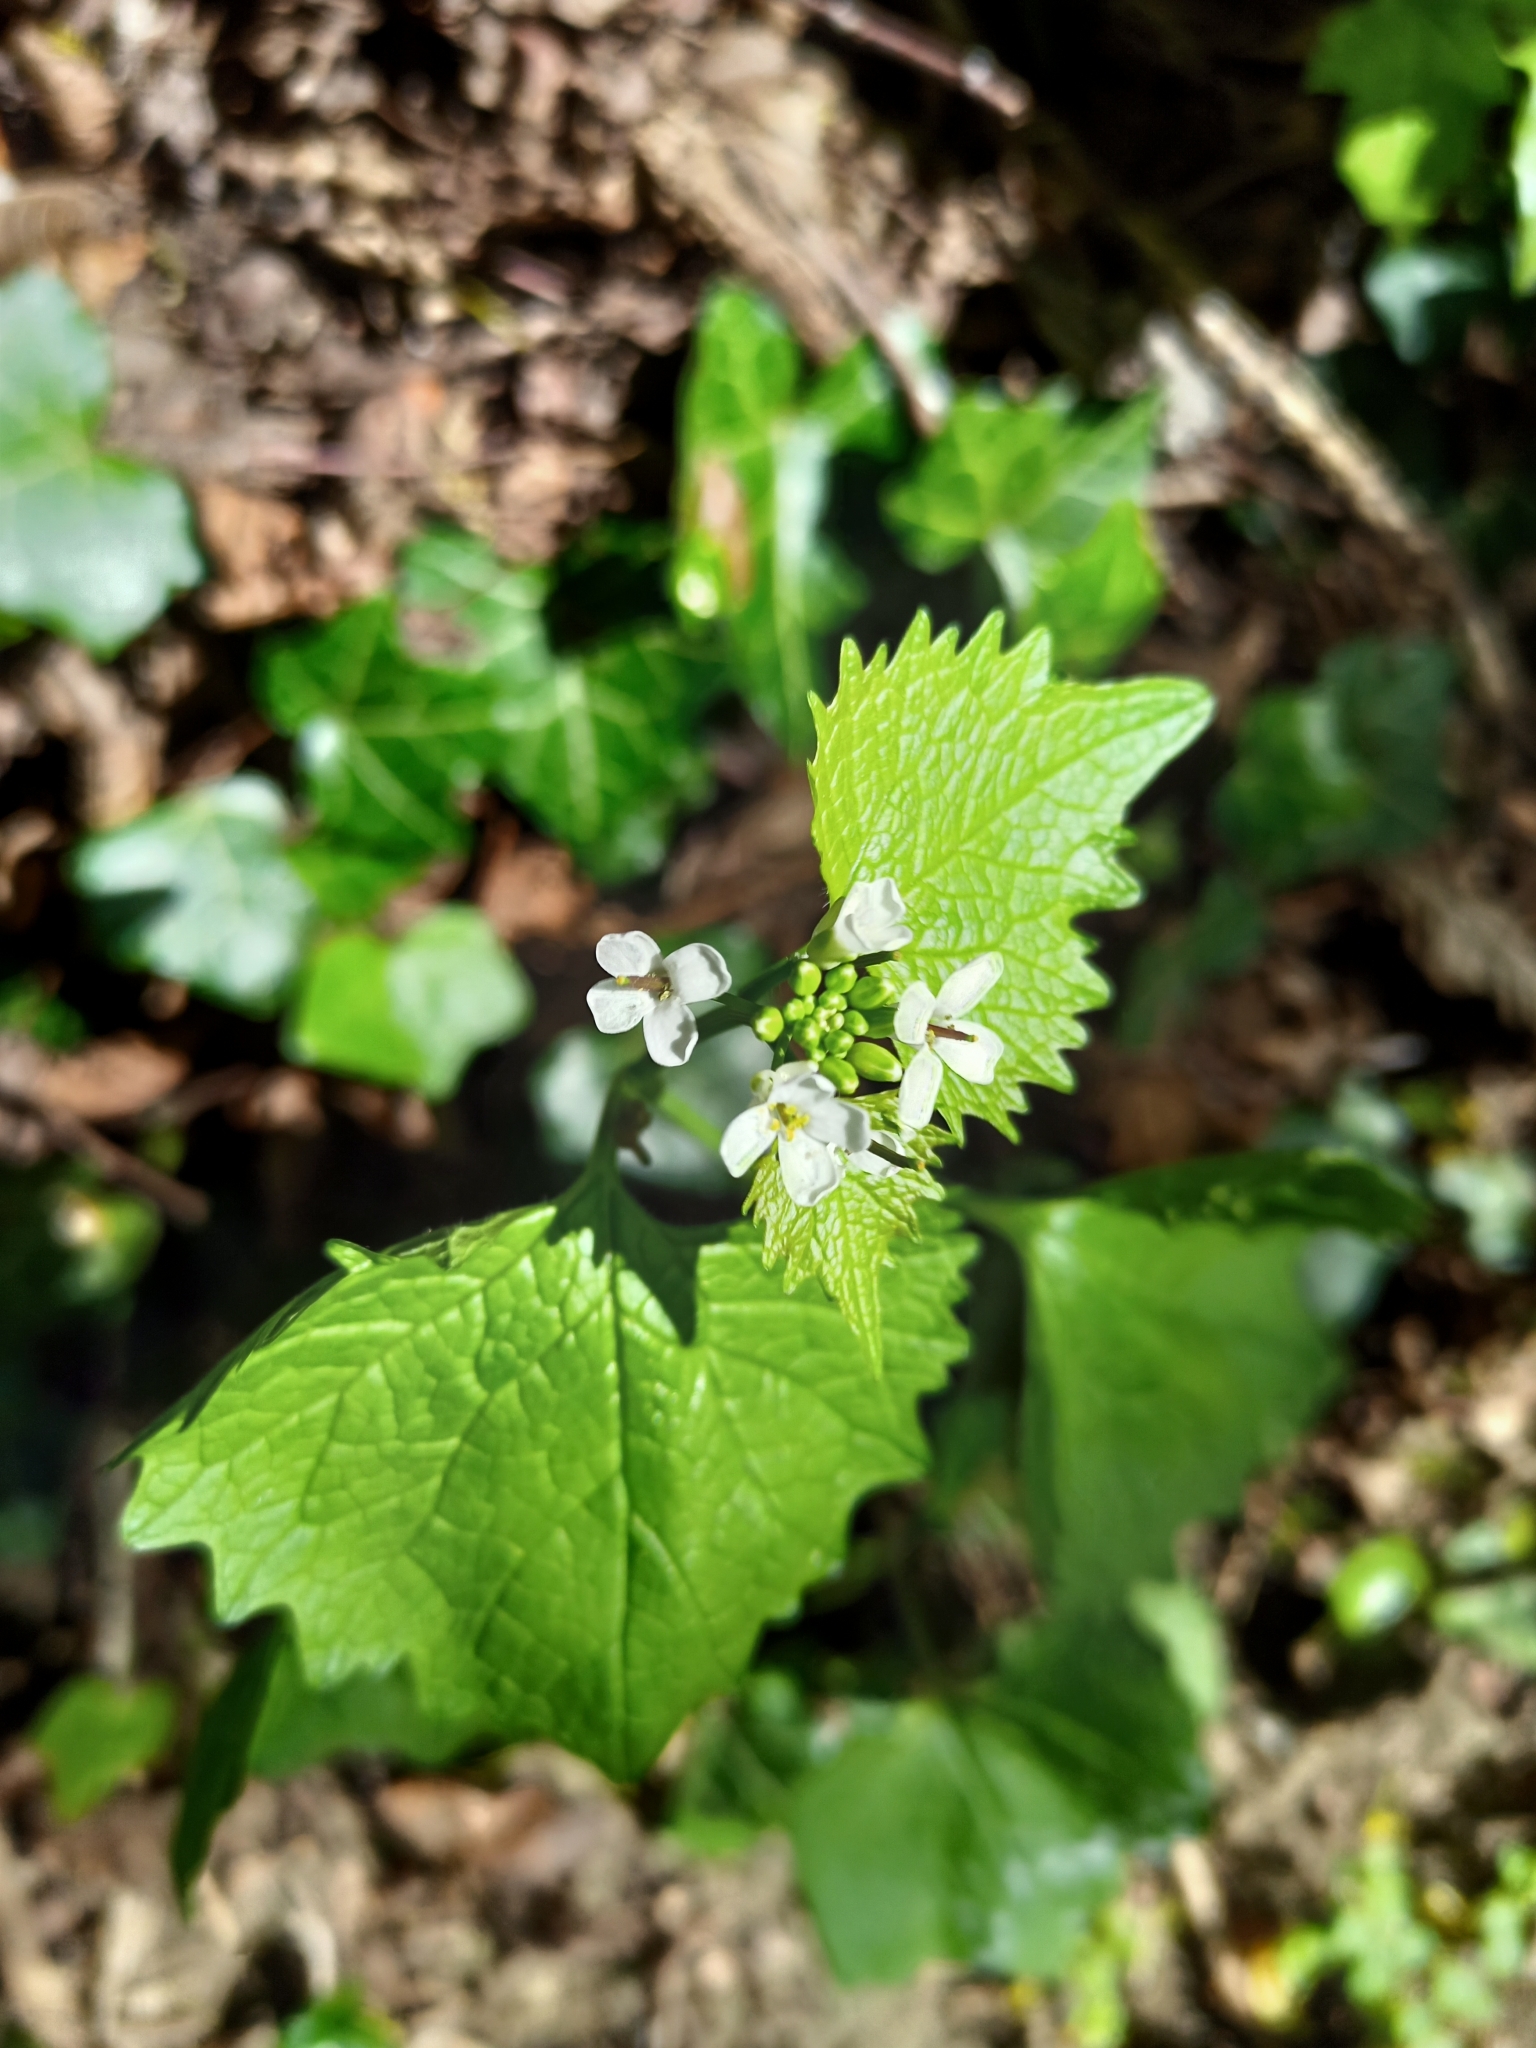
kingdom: Plantae
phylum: Tracheophyta
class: Magnoliopsida
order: Brassicales
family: Brassicaceae
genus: Alliaria
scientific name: Alliaria petiolata
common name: Garlic mustard
